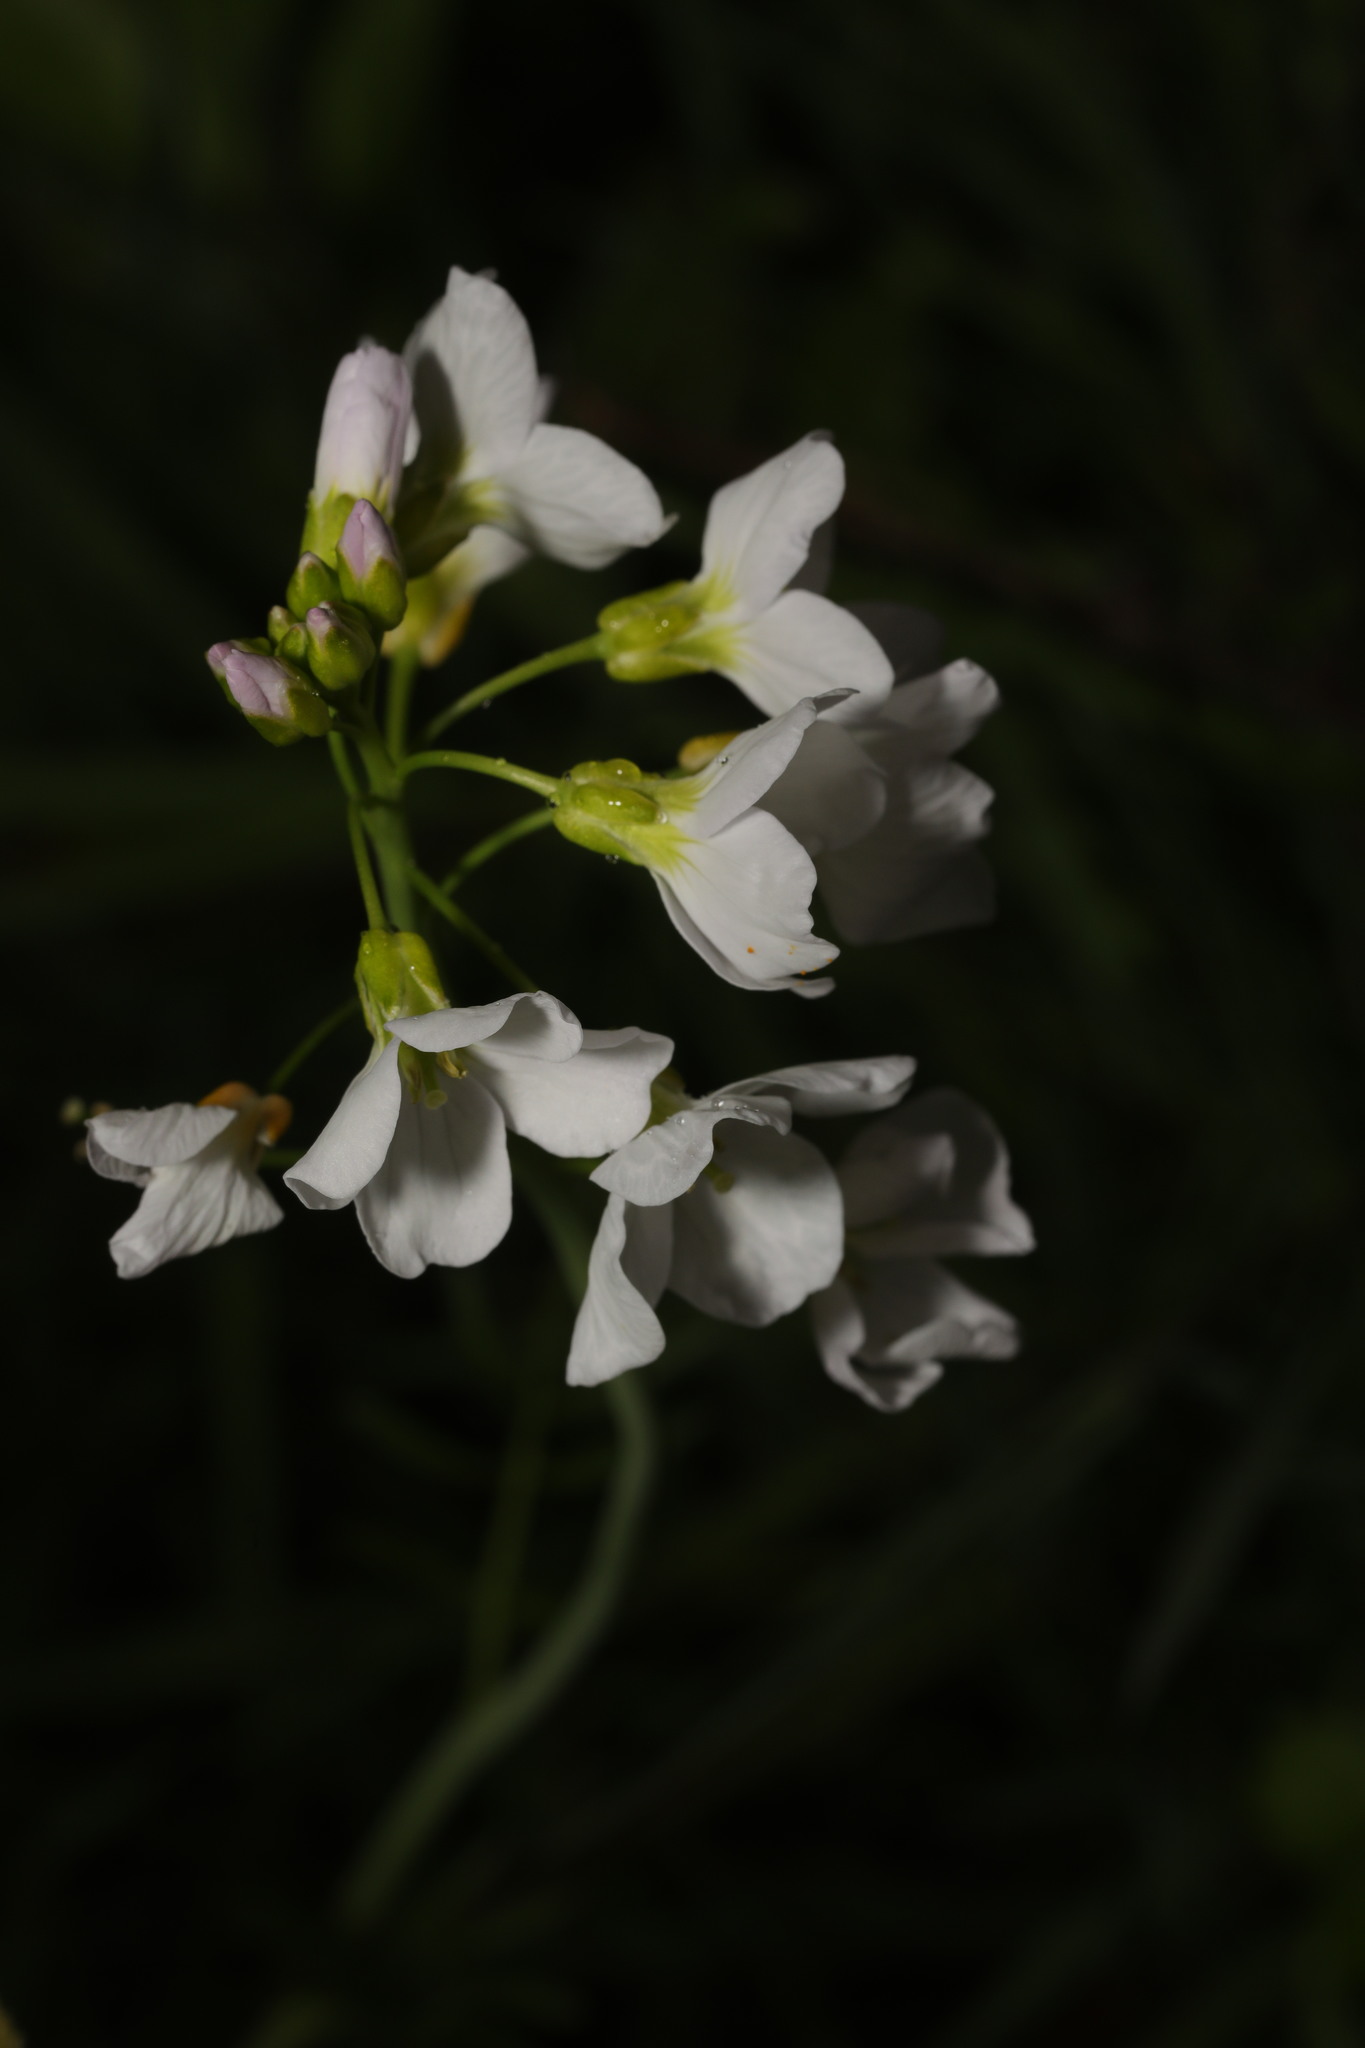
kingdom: Plantae
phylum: Tracheophyta
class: Magnoliopsida
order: Brassicales
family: Brassicaceae
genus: Cardamine
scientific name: Cardamine pratensis
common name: Cuckoo flower
